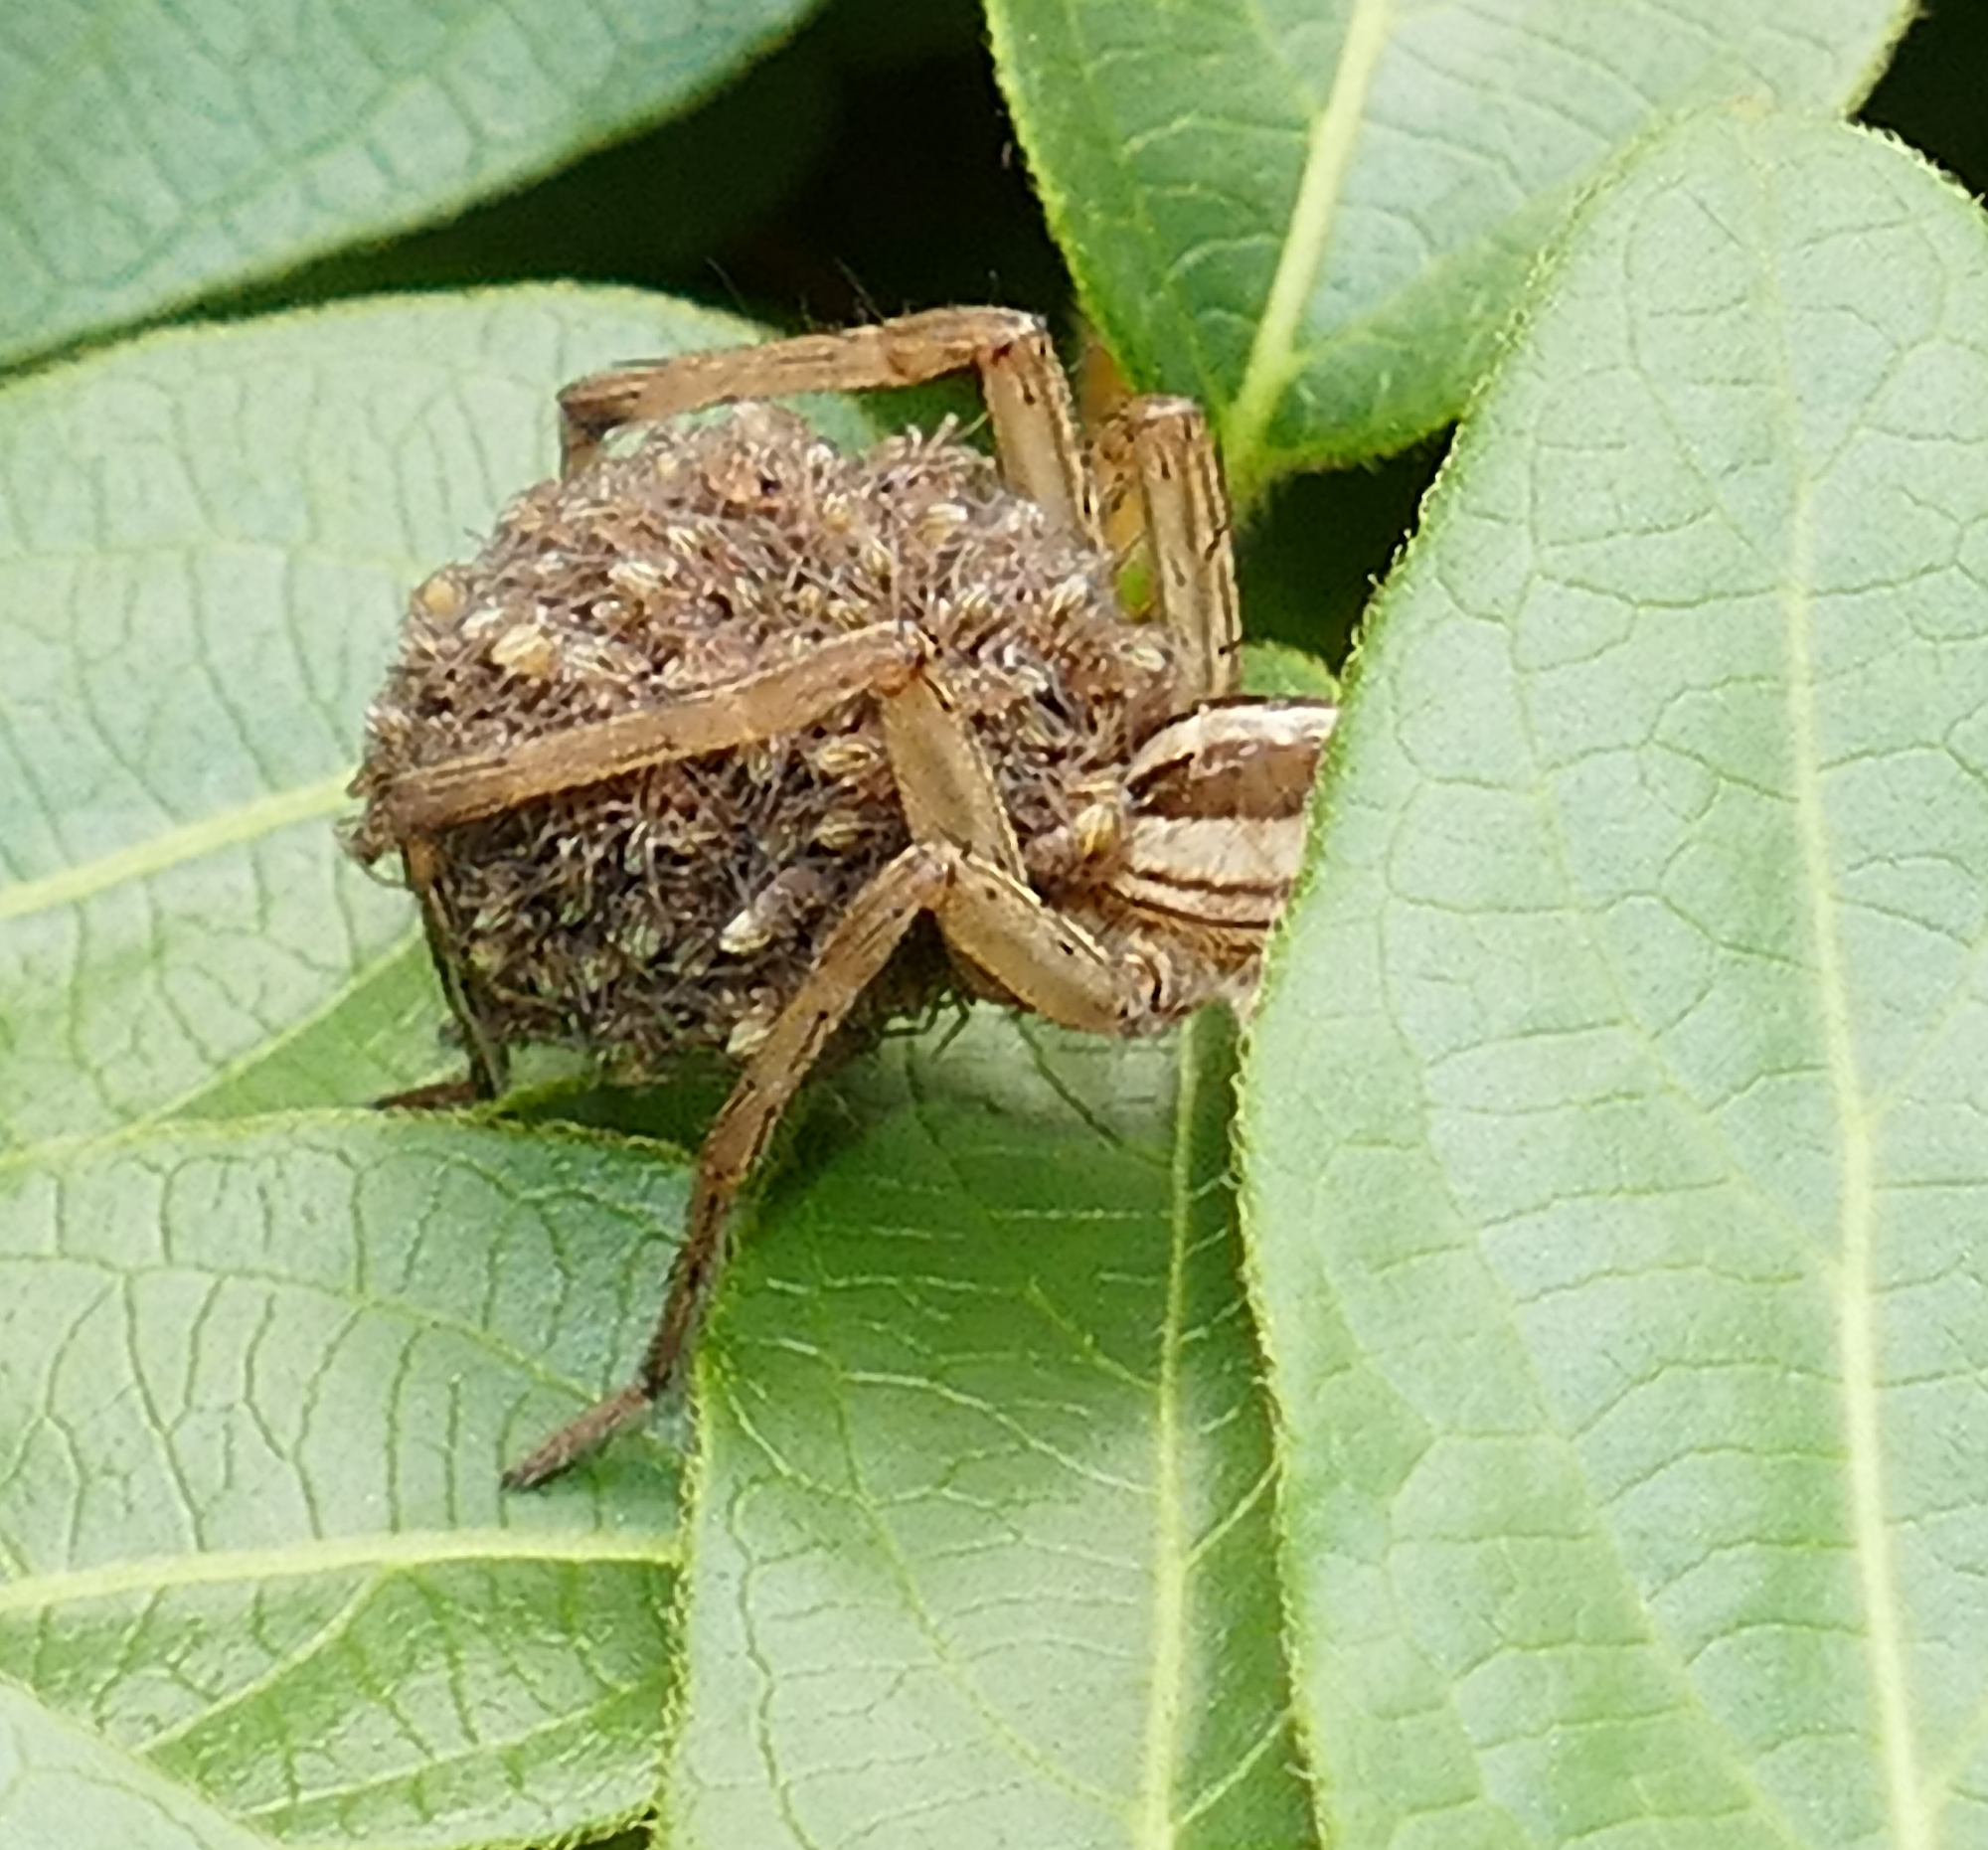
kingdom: Animalia
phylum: Arthropoda
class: Arachnida
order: Araneae
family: Lycosidae
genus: Rabidosa
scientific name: Rabidosa
